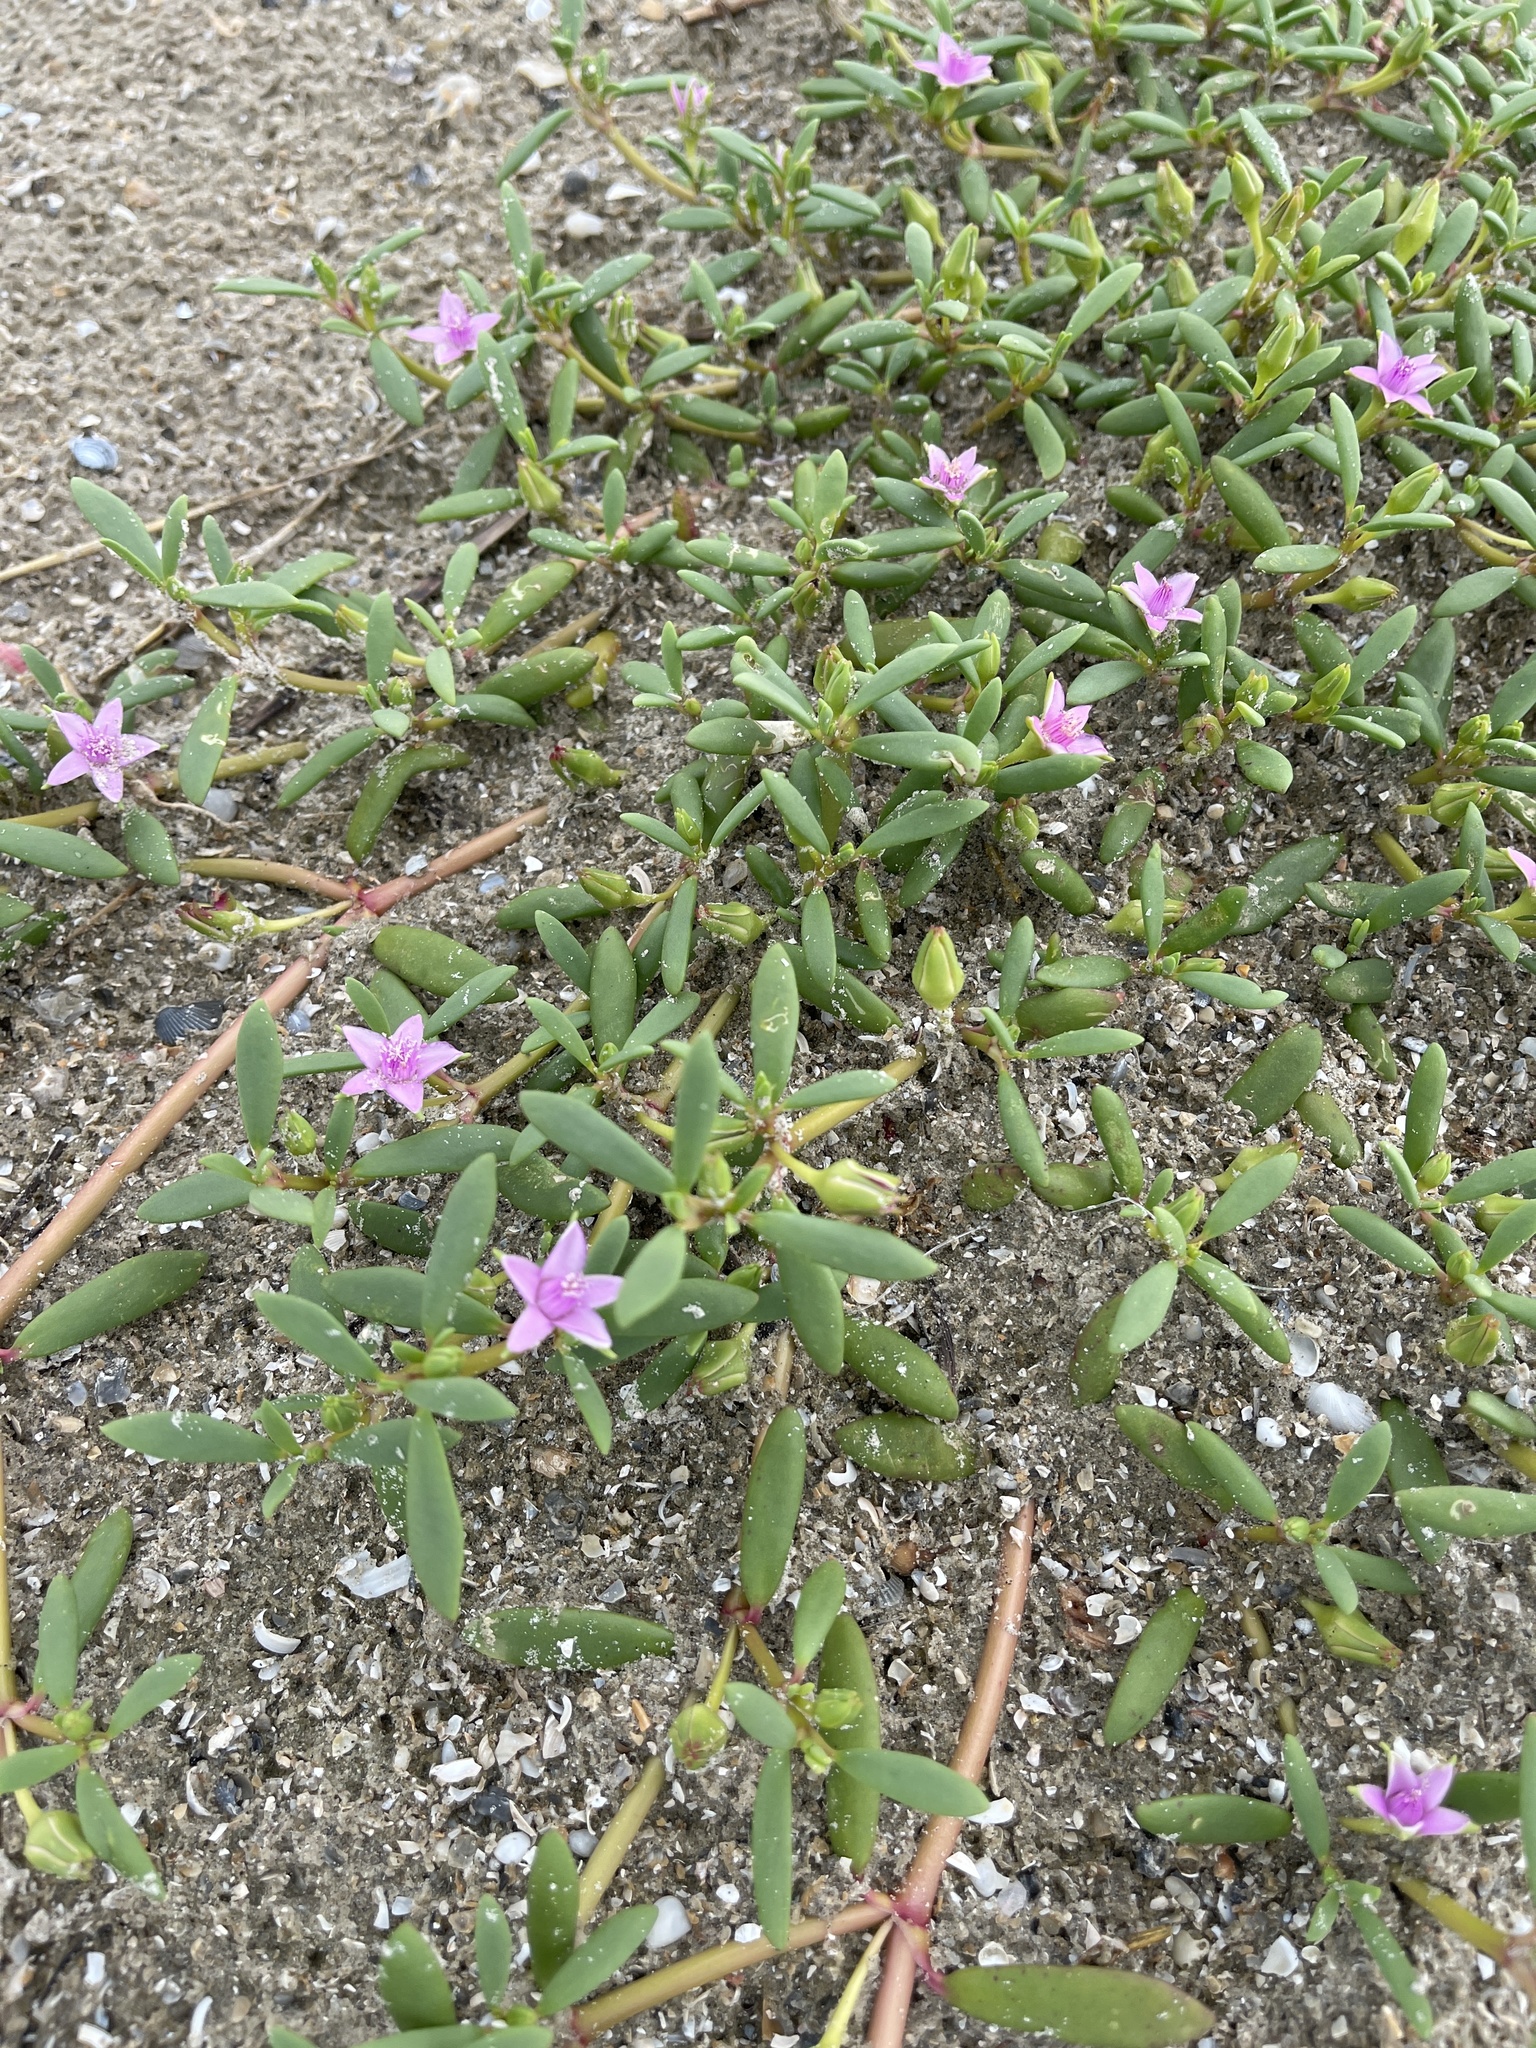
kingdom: Plantae
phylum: Tracheophyta
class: Magnoliopsida
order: Caryophyllales
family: Aizoaceae
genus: Sesuvium
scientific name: Sesuvium portulacastrum
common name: Sea-purslane
